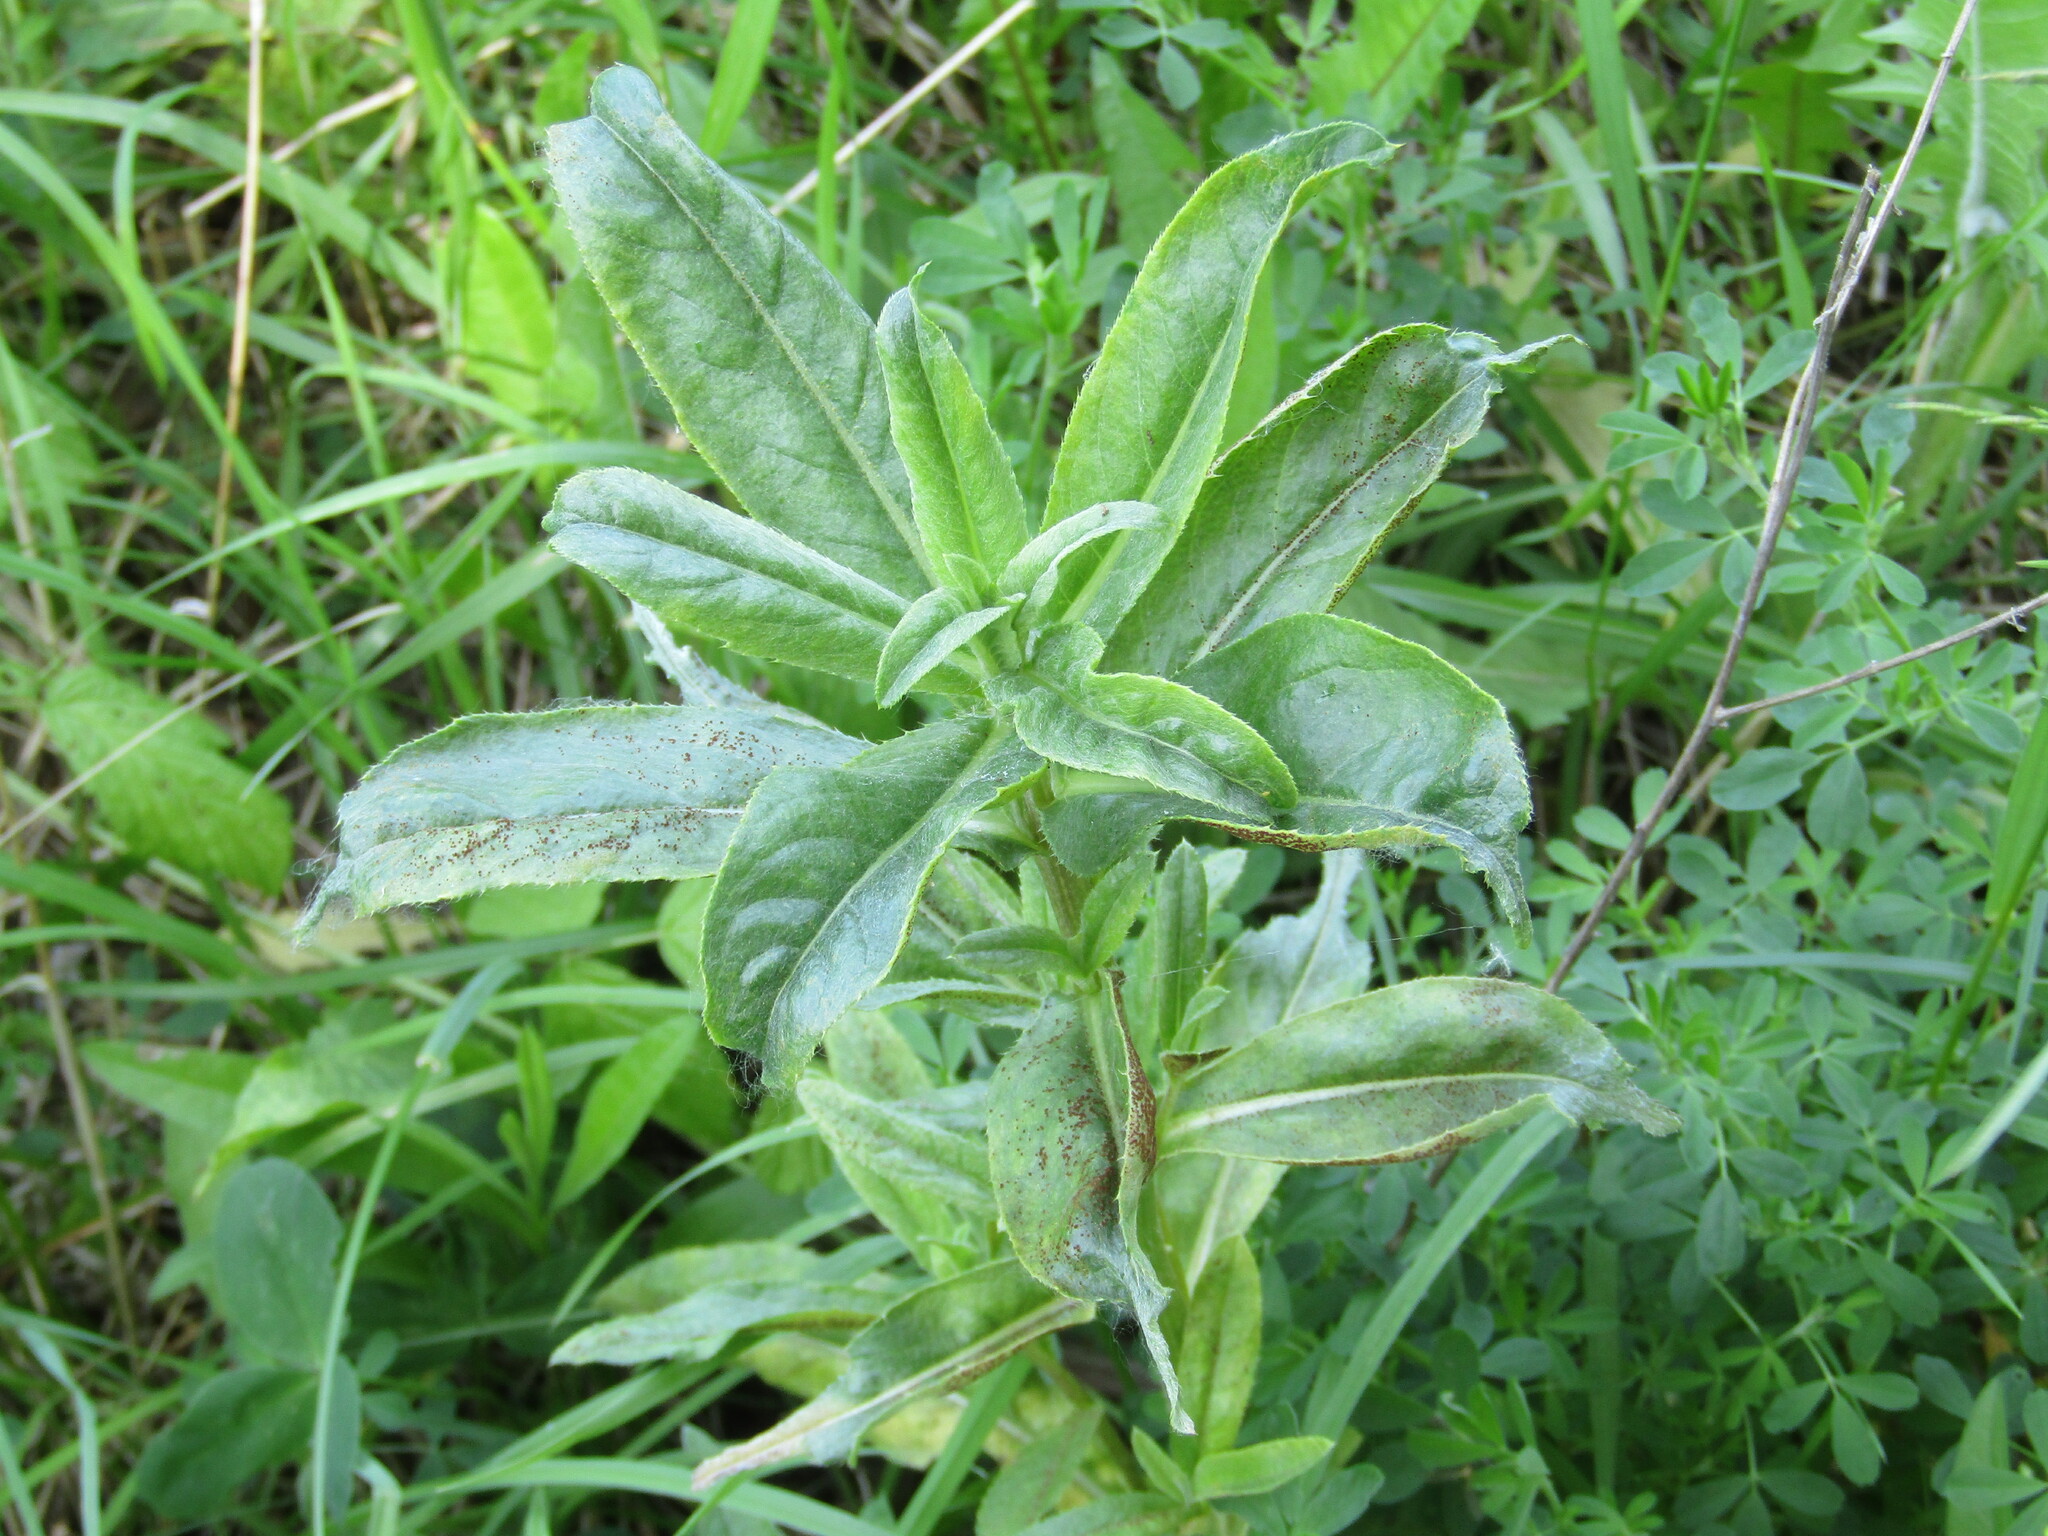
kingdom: Plantae
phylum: Tracheophyta
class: Magnoliopsida
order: Asterales
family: Asteraceae
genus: Cirsium
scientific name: Cirsium arvense
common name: Creeping thistle
